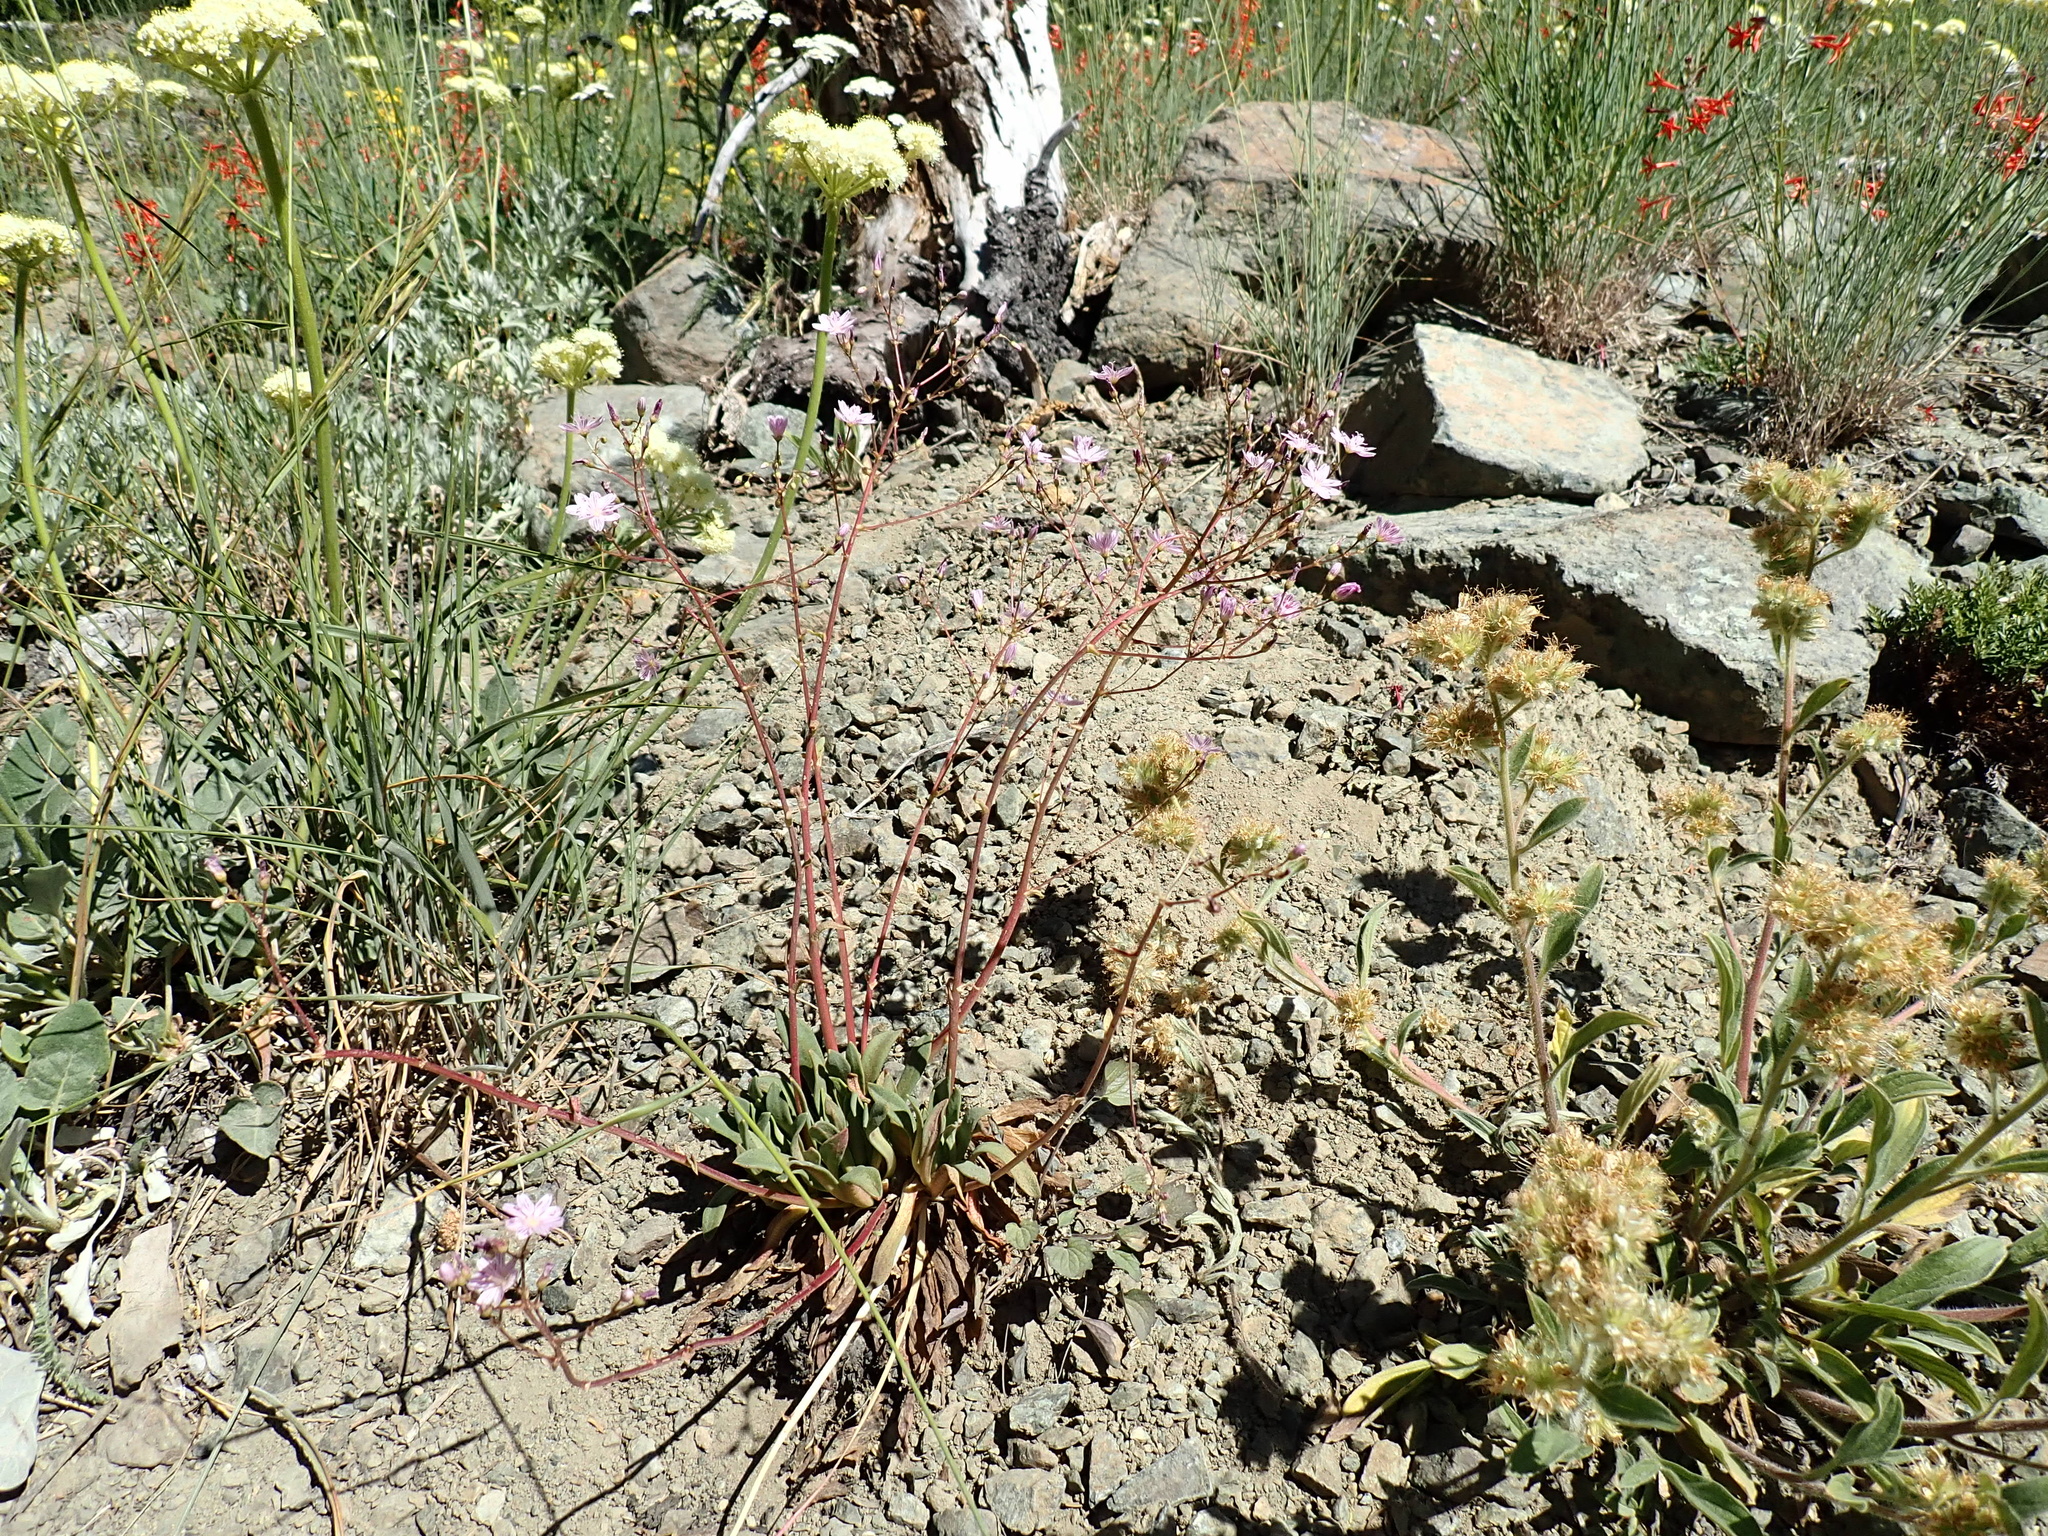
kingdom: Plantae
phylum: Tracheophyta
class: Magnoliopsida
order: Caryophyllales
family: Montiaceae
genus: Lewisia
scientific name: Lewisia columbiana
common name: Columbia lewisia
